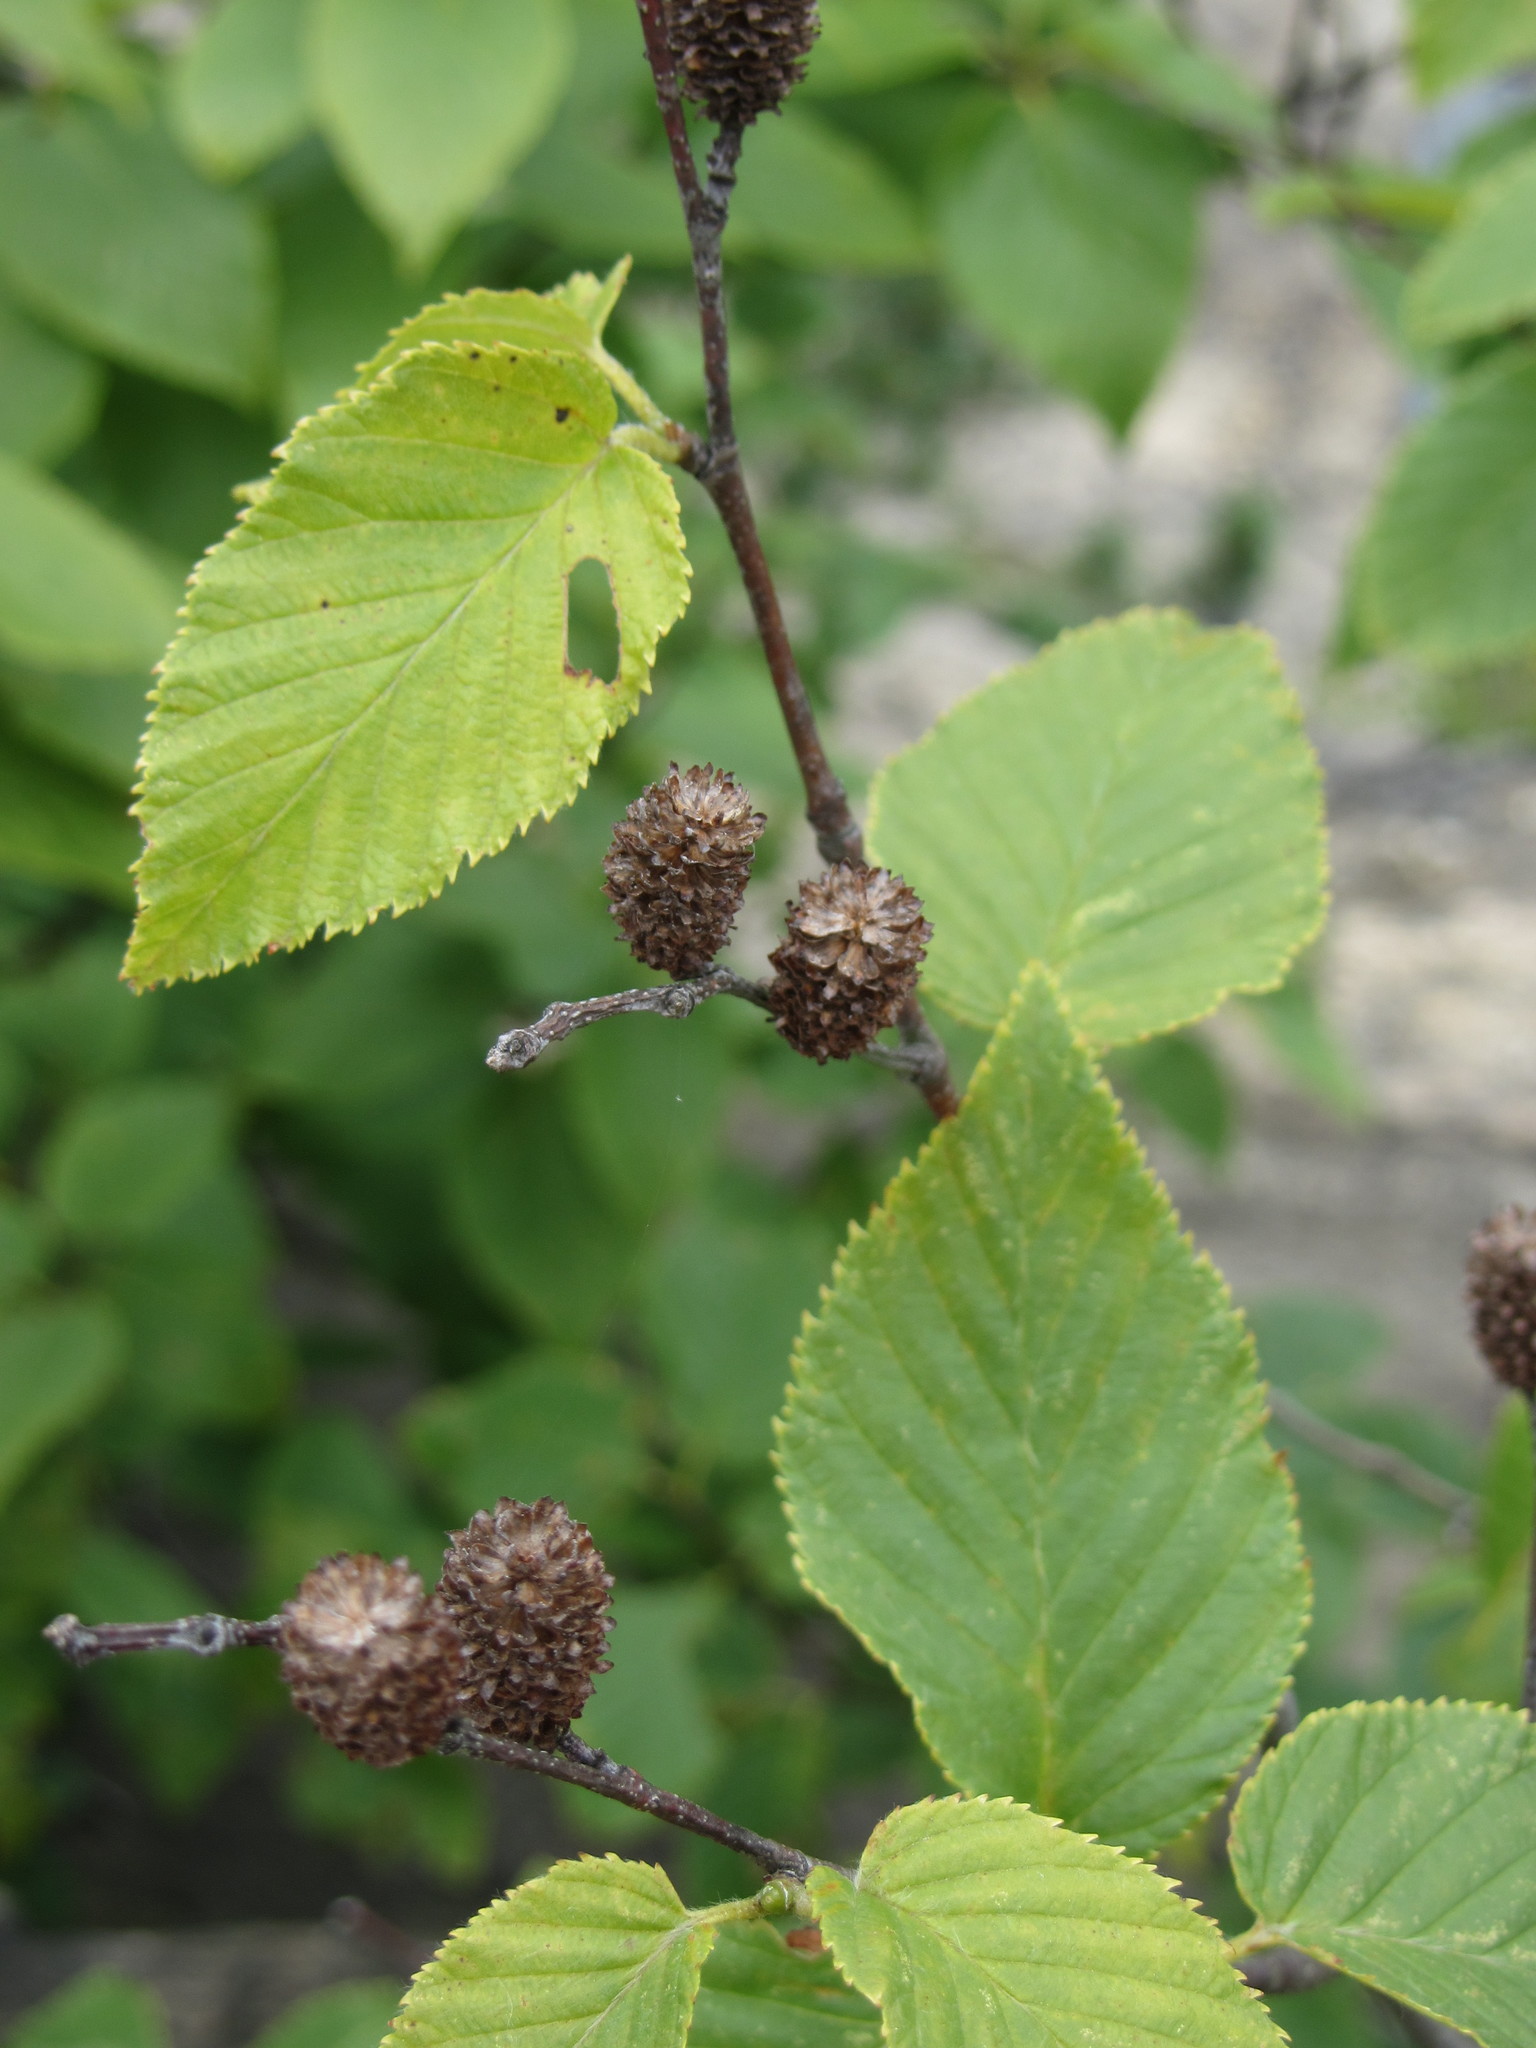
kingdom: Plantae
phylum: Tracheophyta
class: Magnoliopsida
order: Fagales
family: Betulaceae
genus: Betula
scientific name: Betula lenta
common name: Black birch
